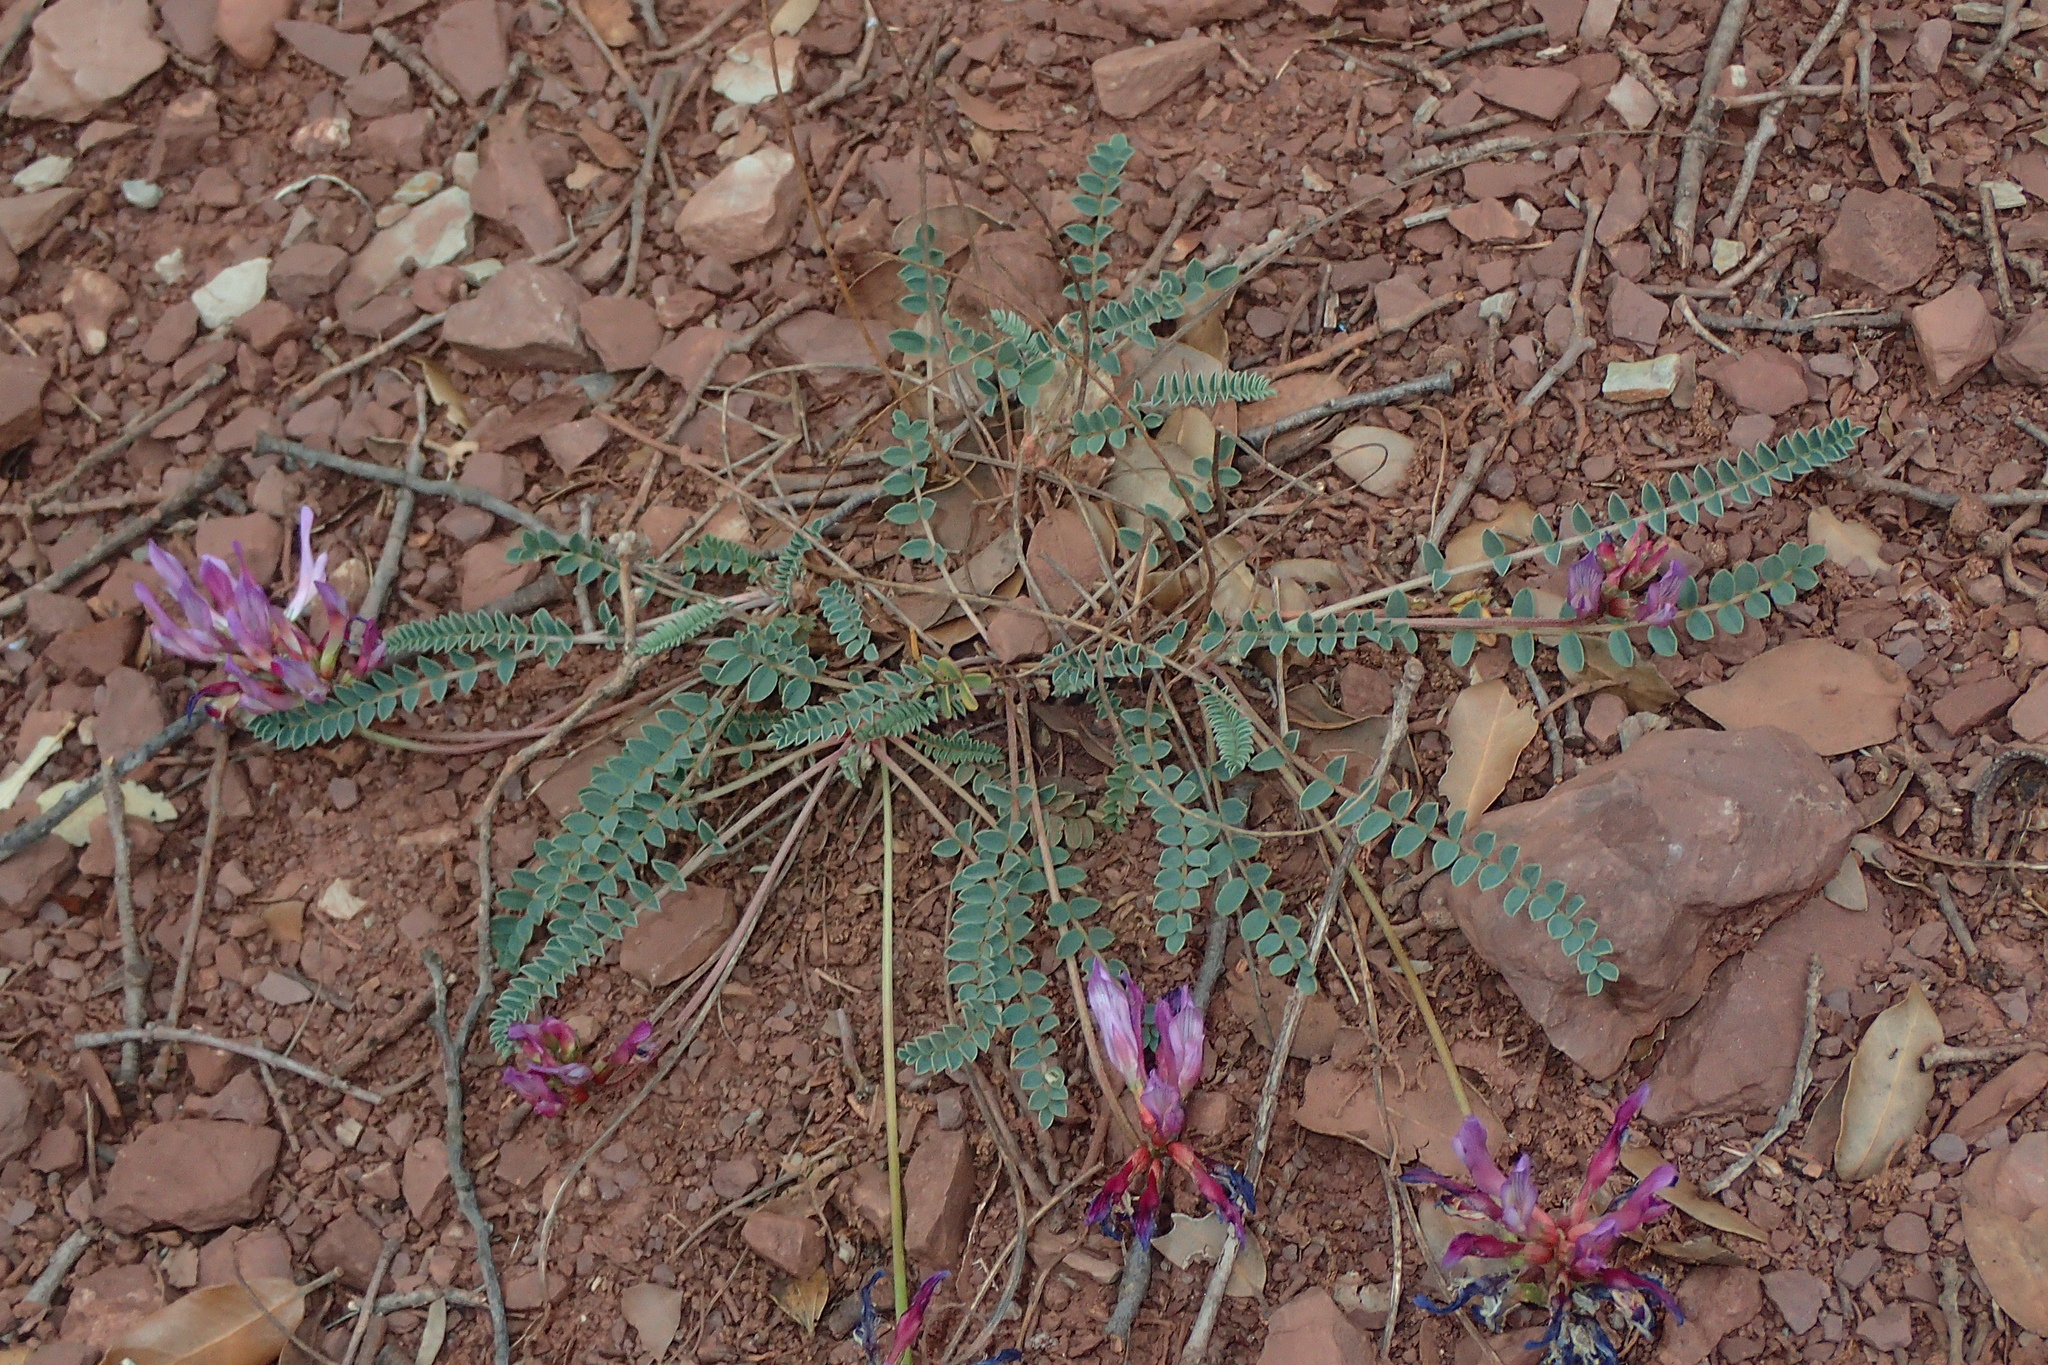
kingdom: Plantae
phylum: Tracheophyta
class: Magnoliopsida
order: Fabales
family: Fabaceae
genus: Astragalus
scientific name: Astragalus monspessulanus
